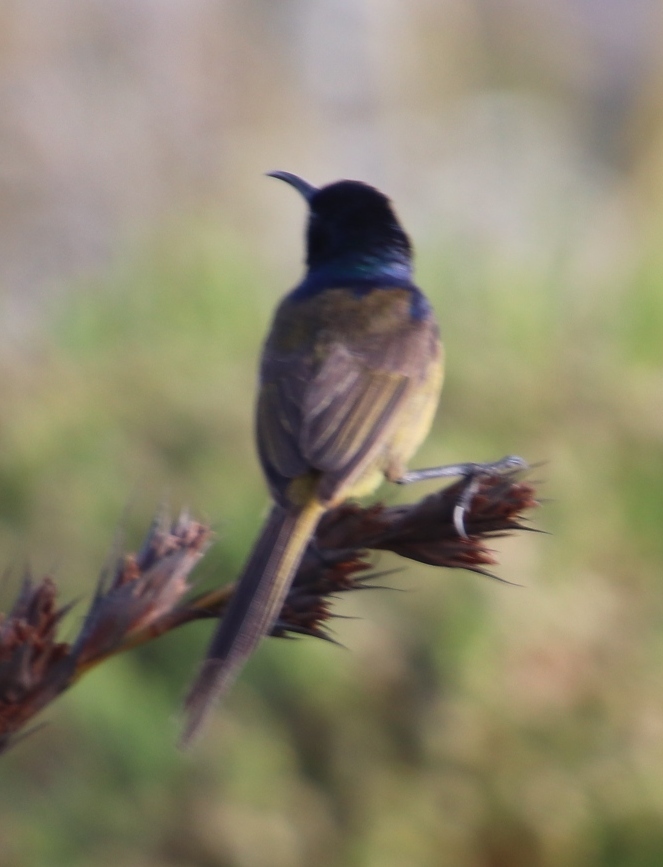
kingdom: Animalia
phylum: Chordata
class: Aves
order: Passeriformes
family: Nectariniidae
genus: Anthobaphes
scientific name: Anthobaphes violacea
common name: Orange-breasted sunbird
